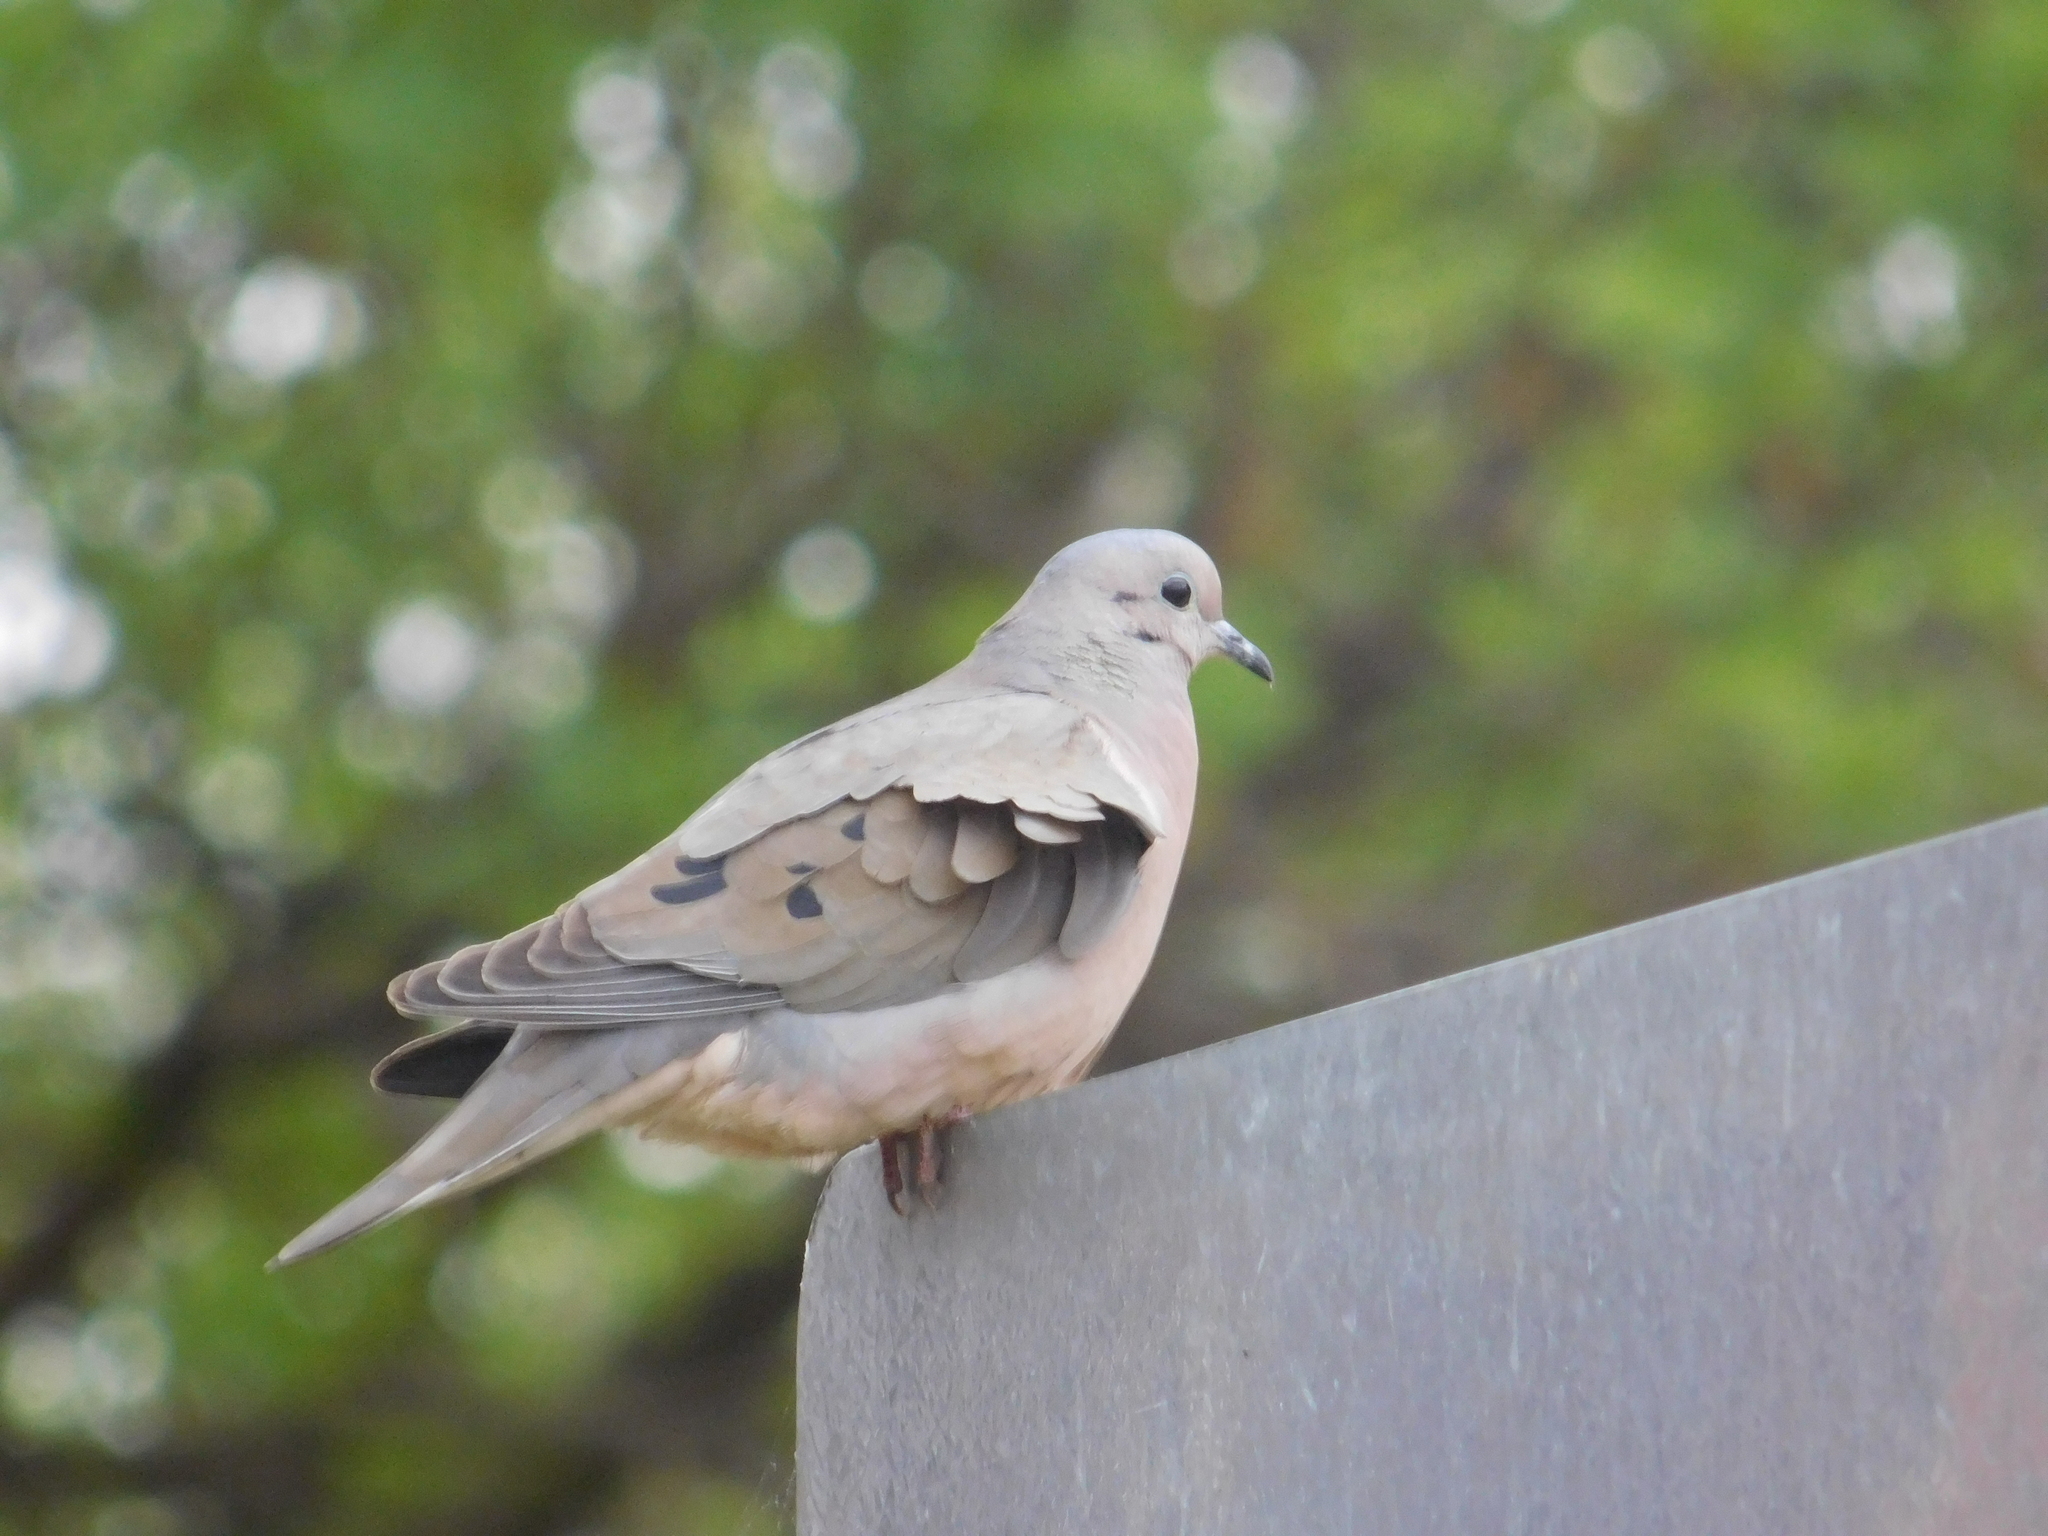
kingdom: Animalia
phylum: Chordata
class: Aves
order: Columbiformes
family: Columbidae
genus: Zenaida
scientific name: Zenaida auriculata
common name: Eared dove
